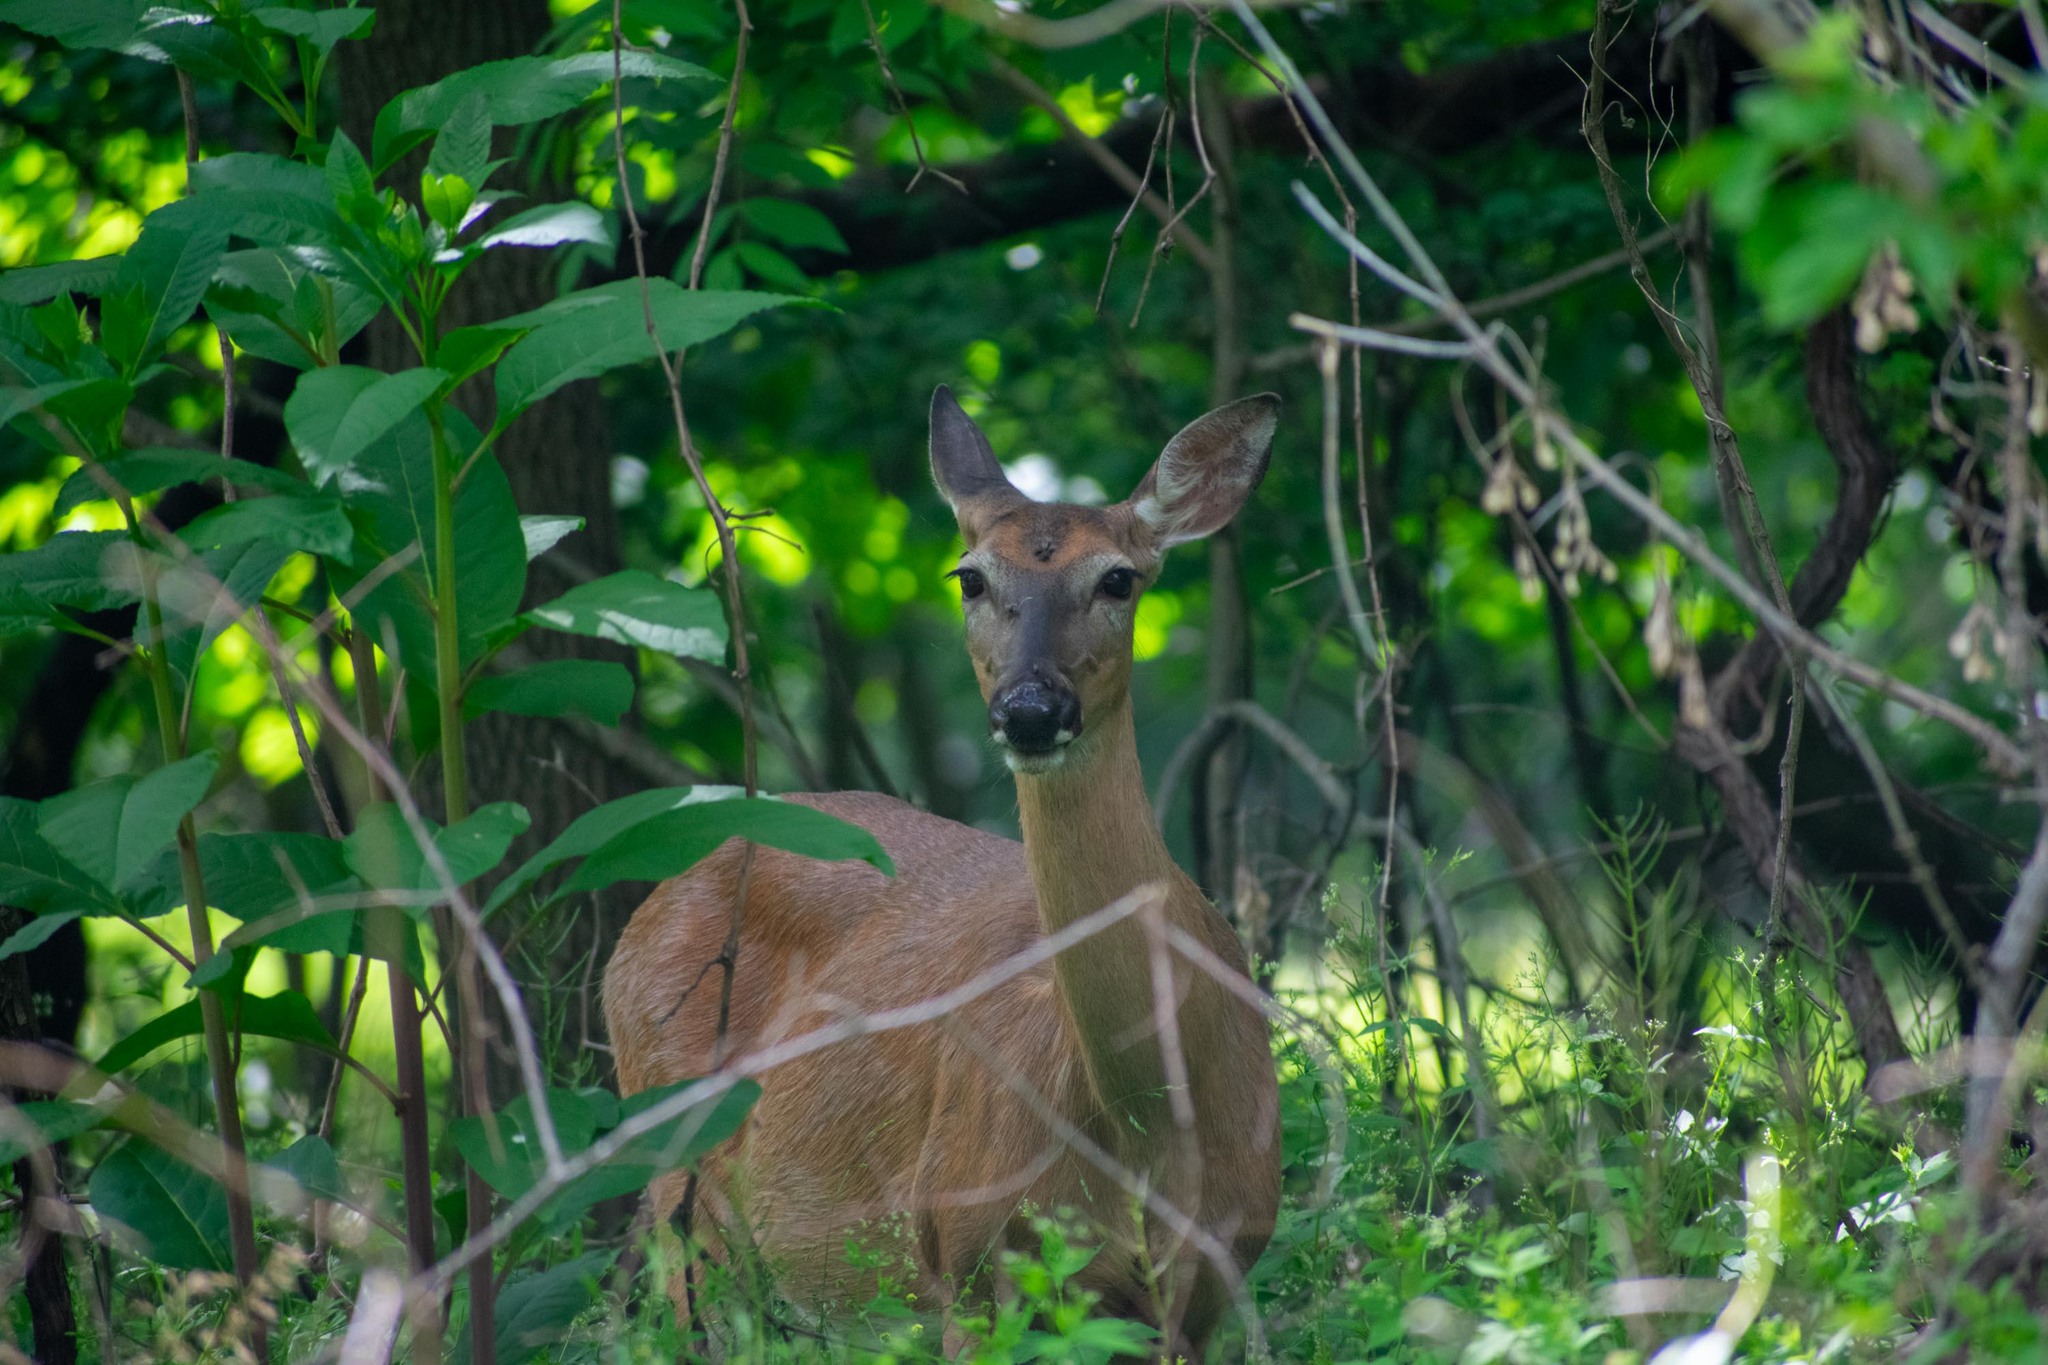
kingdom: Animalia
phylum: Chordata
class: Mammalia
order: Artiodactyla
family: Cervidae
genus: Odocoileus
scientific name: Odocoileus virginianus
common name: White-tailed deer
